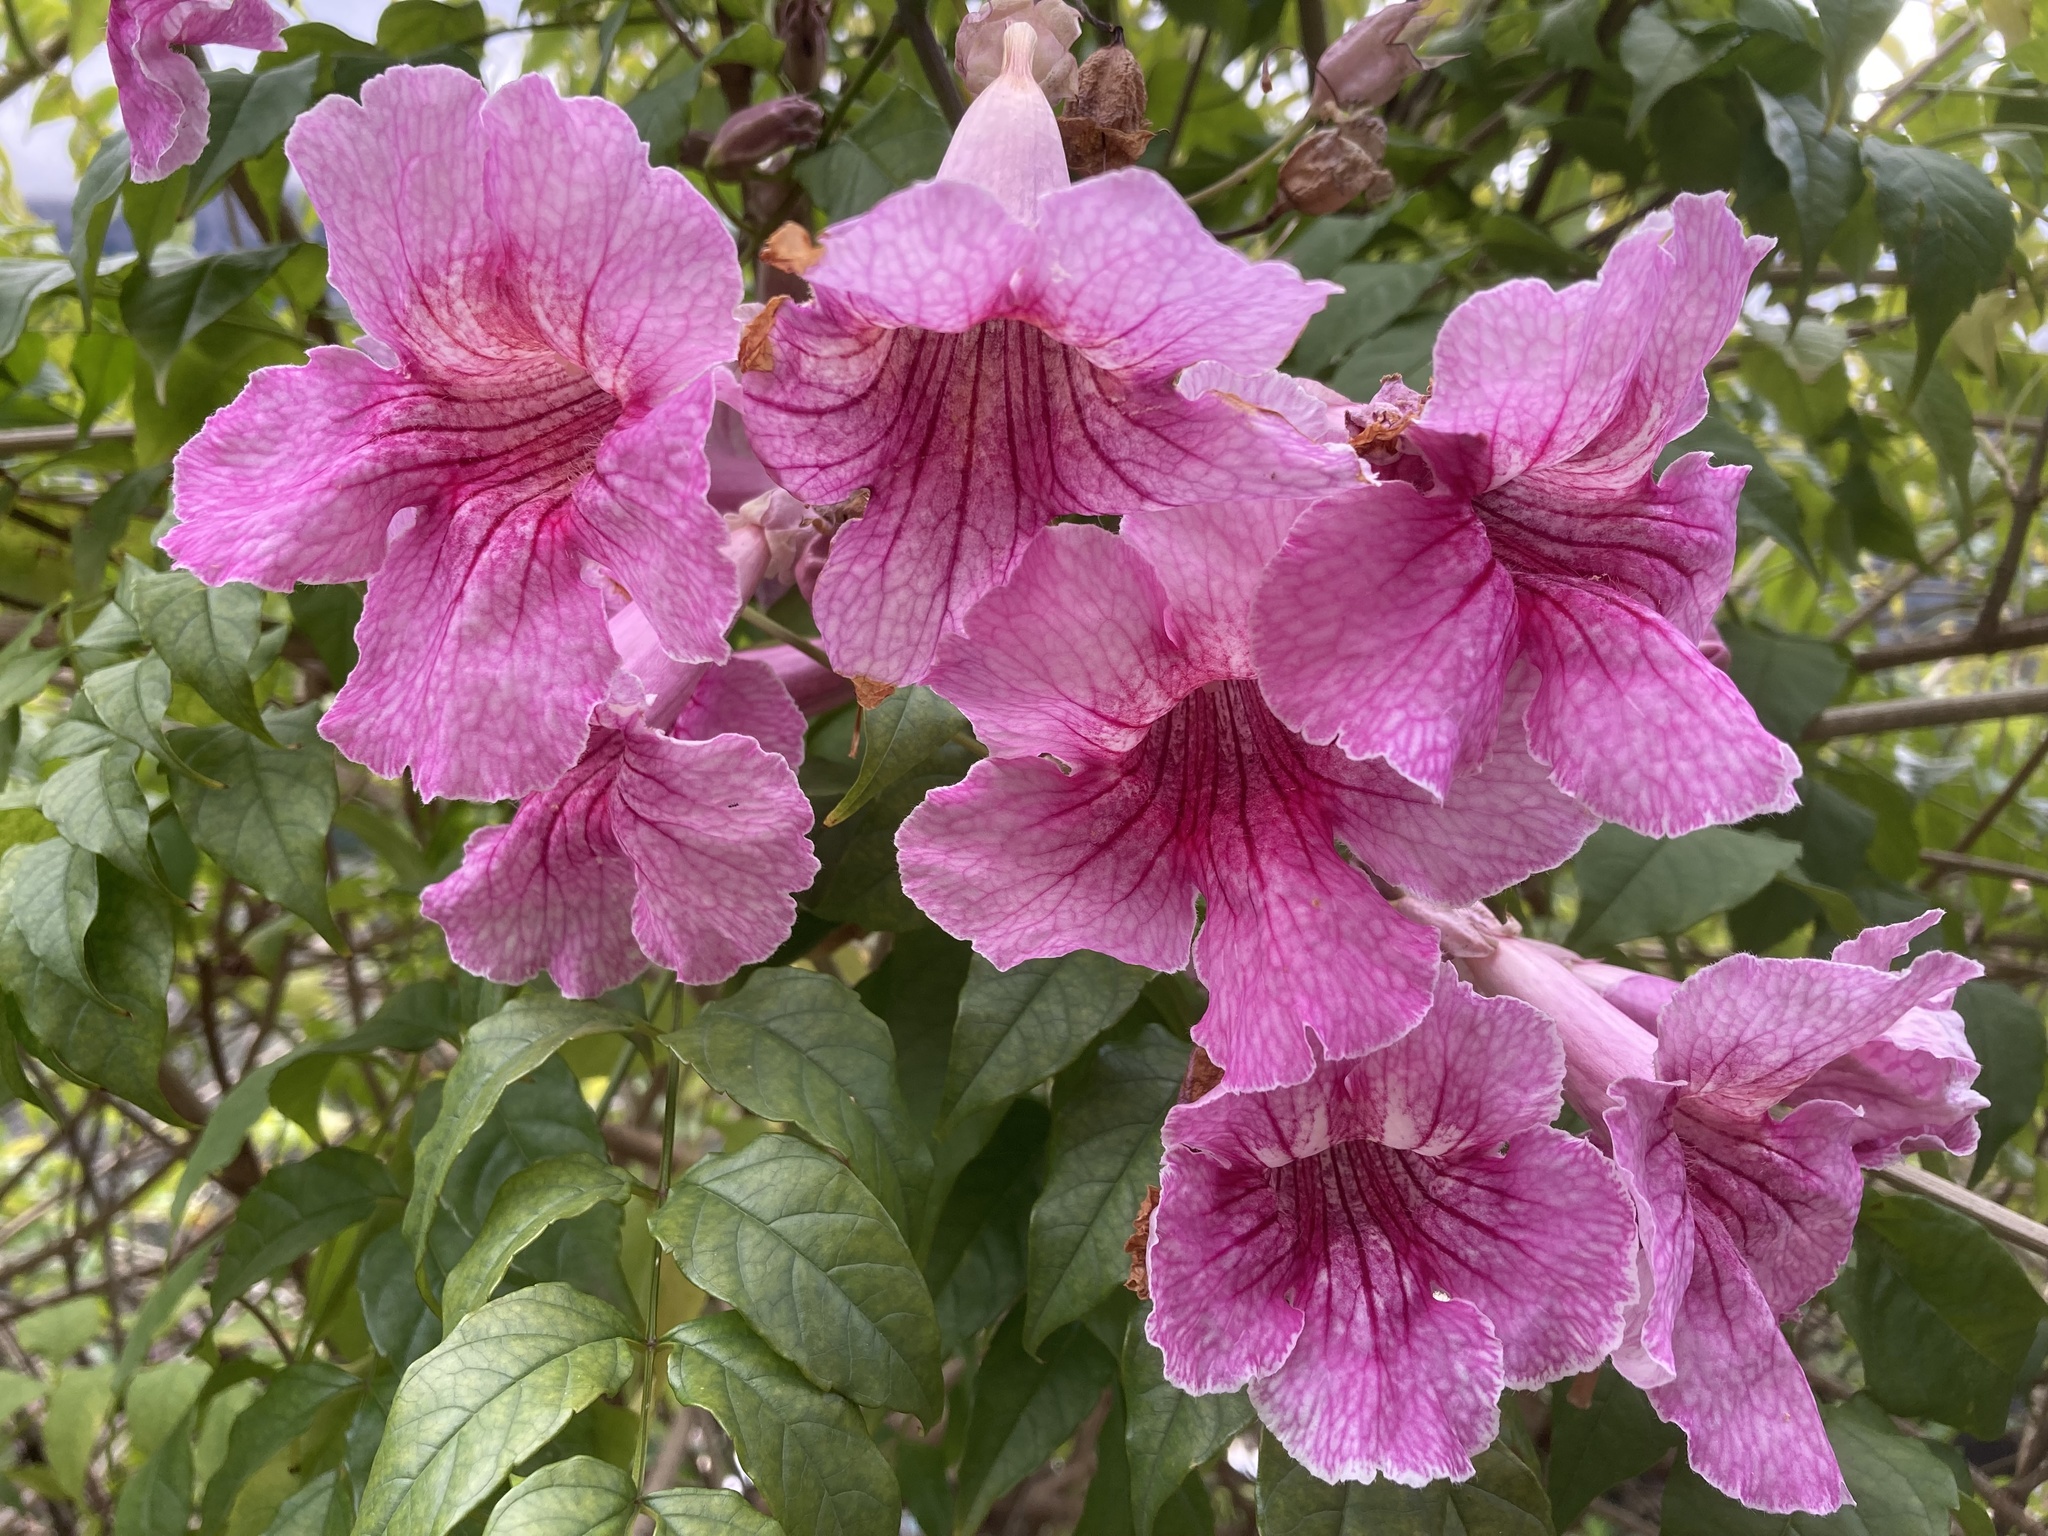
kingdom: Plantae
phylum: Tracheophyta
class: Magnoliopsida
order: Lamiales
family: Bignoniaceae
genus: Podranea
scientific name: Podranea ricasoliana
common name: Zimbabwe creeper
